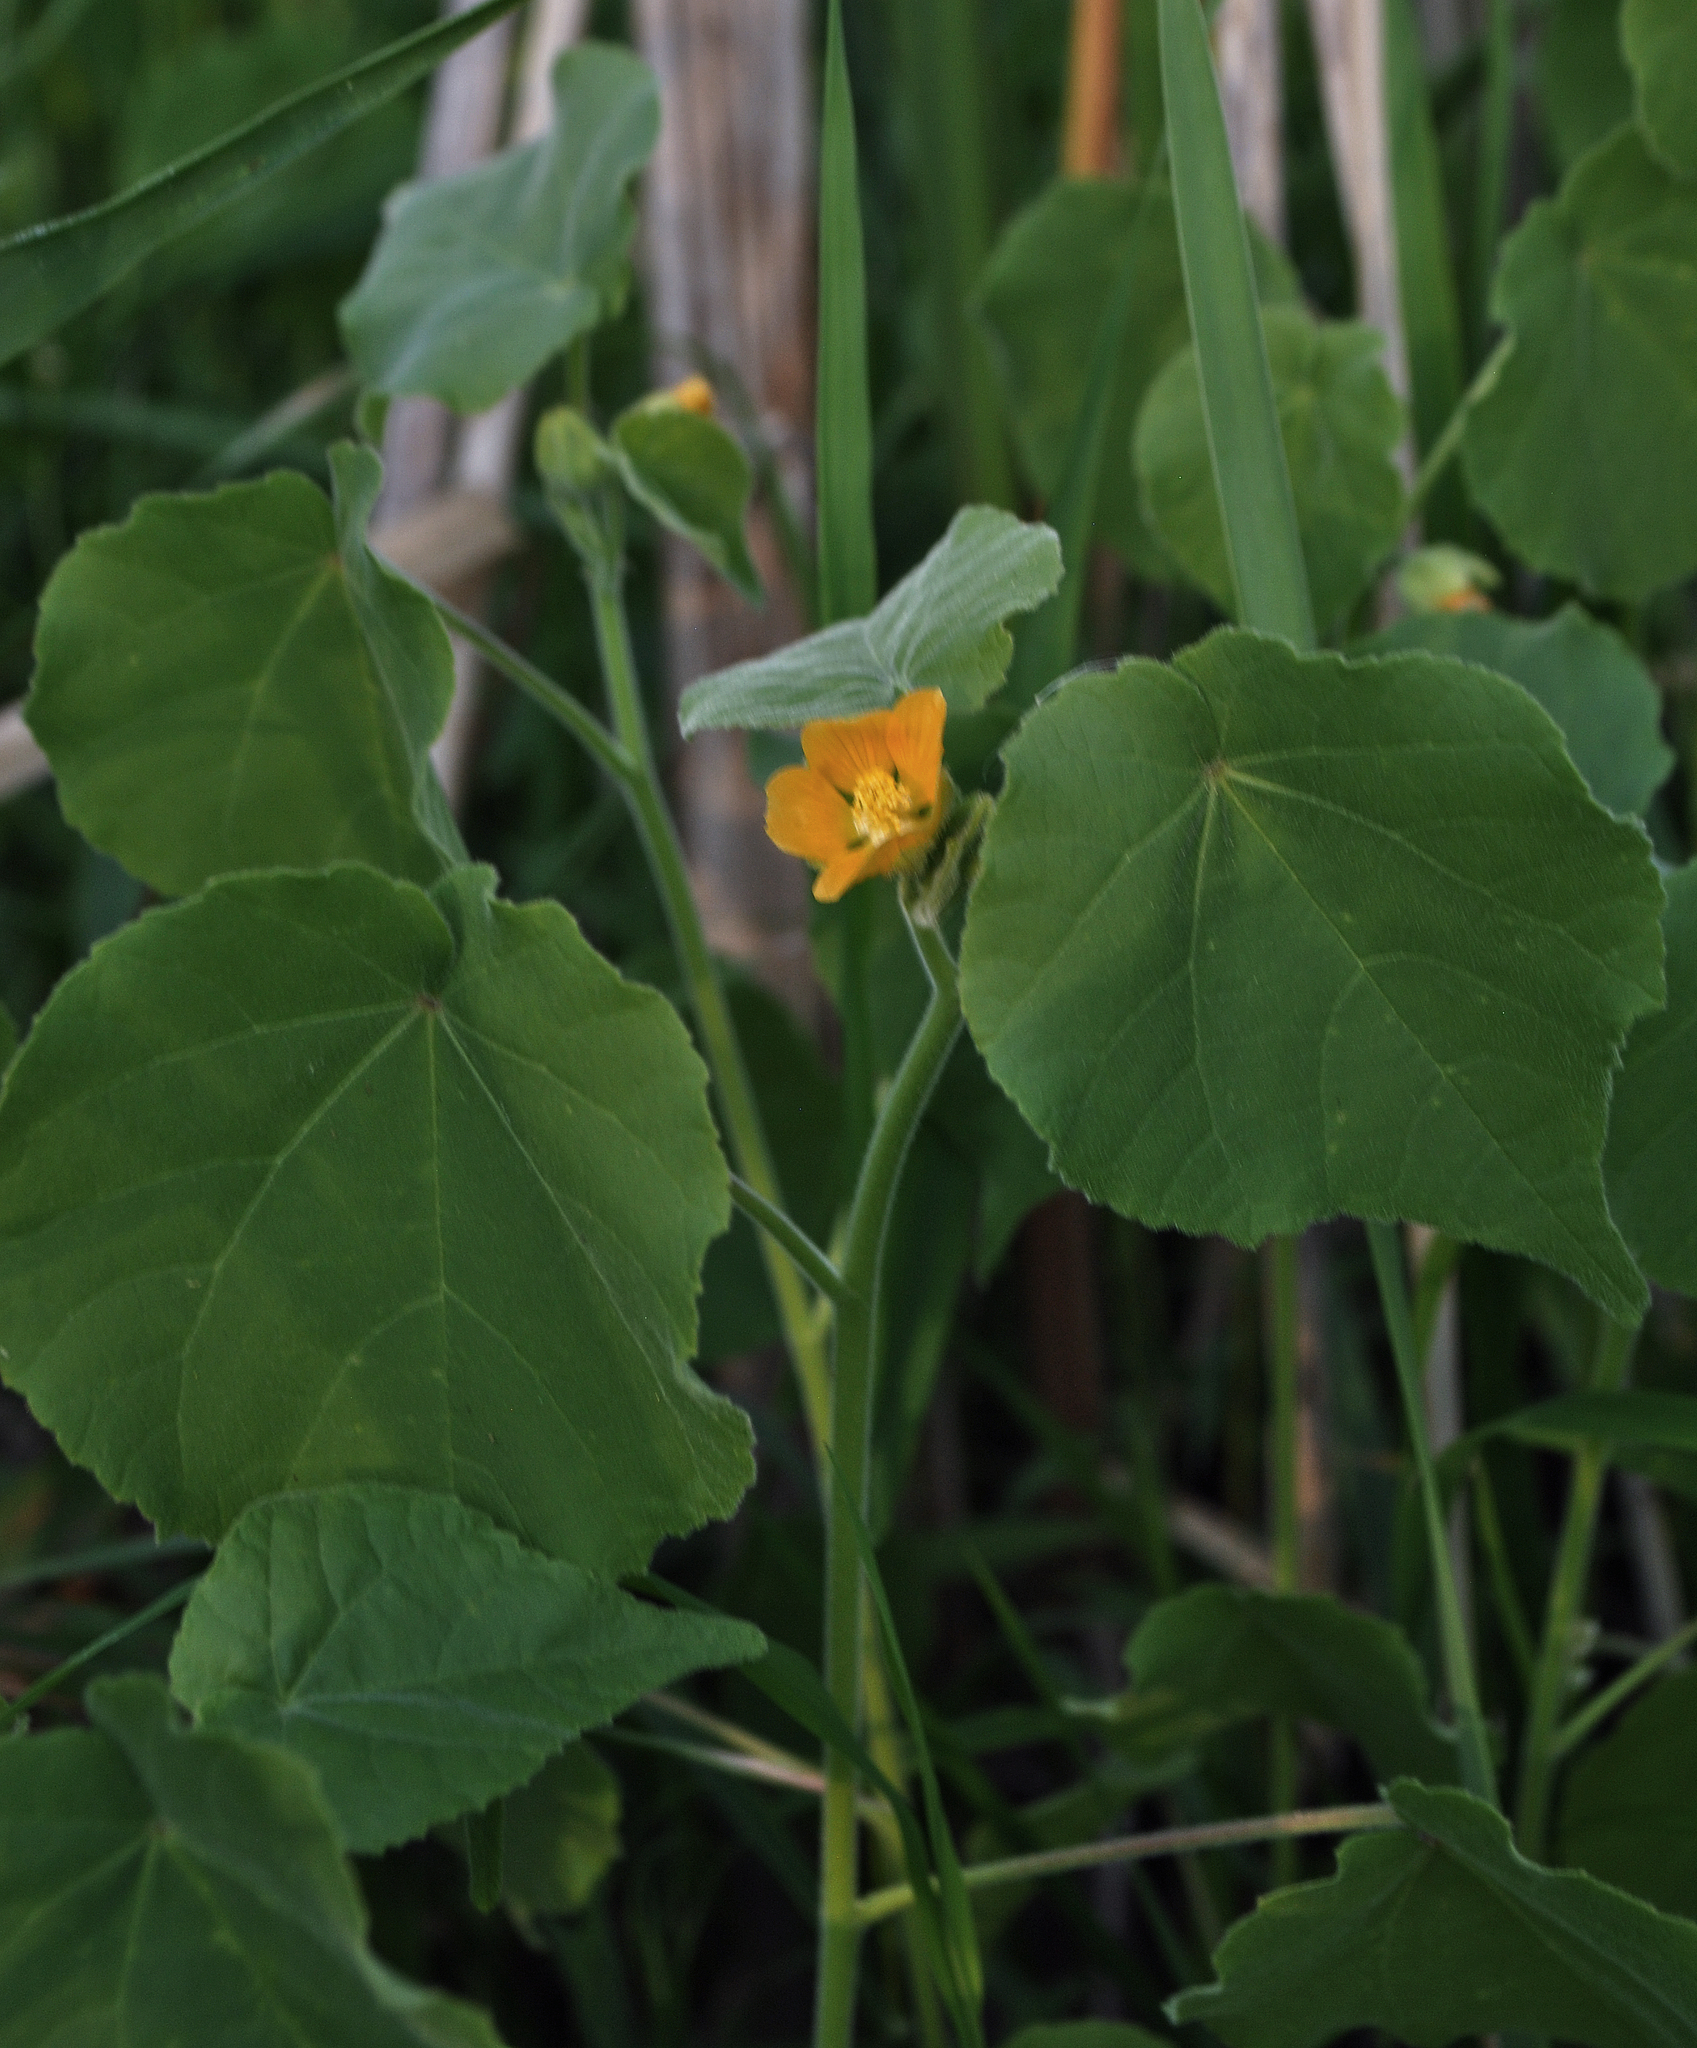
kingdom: Plantae
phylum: Tracheophyta
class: Magnoliopsida
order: Malvales
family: Malvaceae
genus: Abutilon
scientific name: Abutilon theophrasti
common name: Velvetleaf
